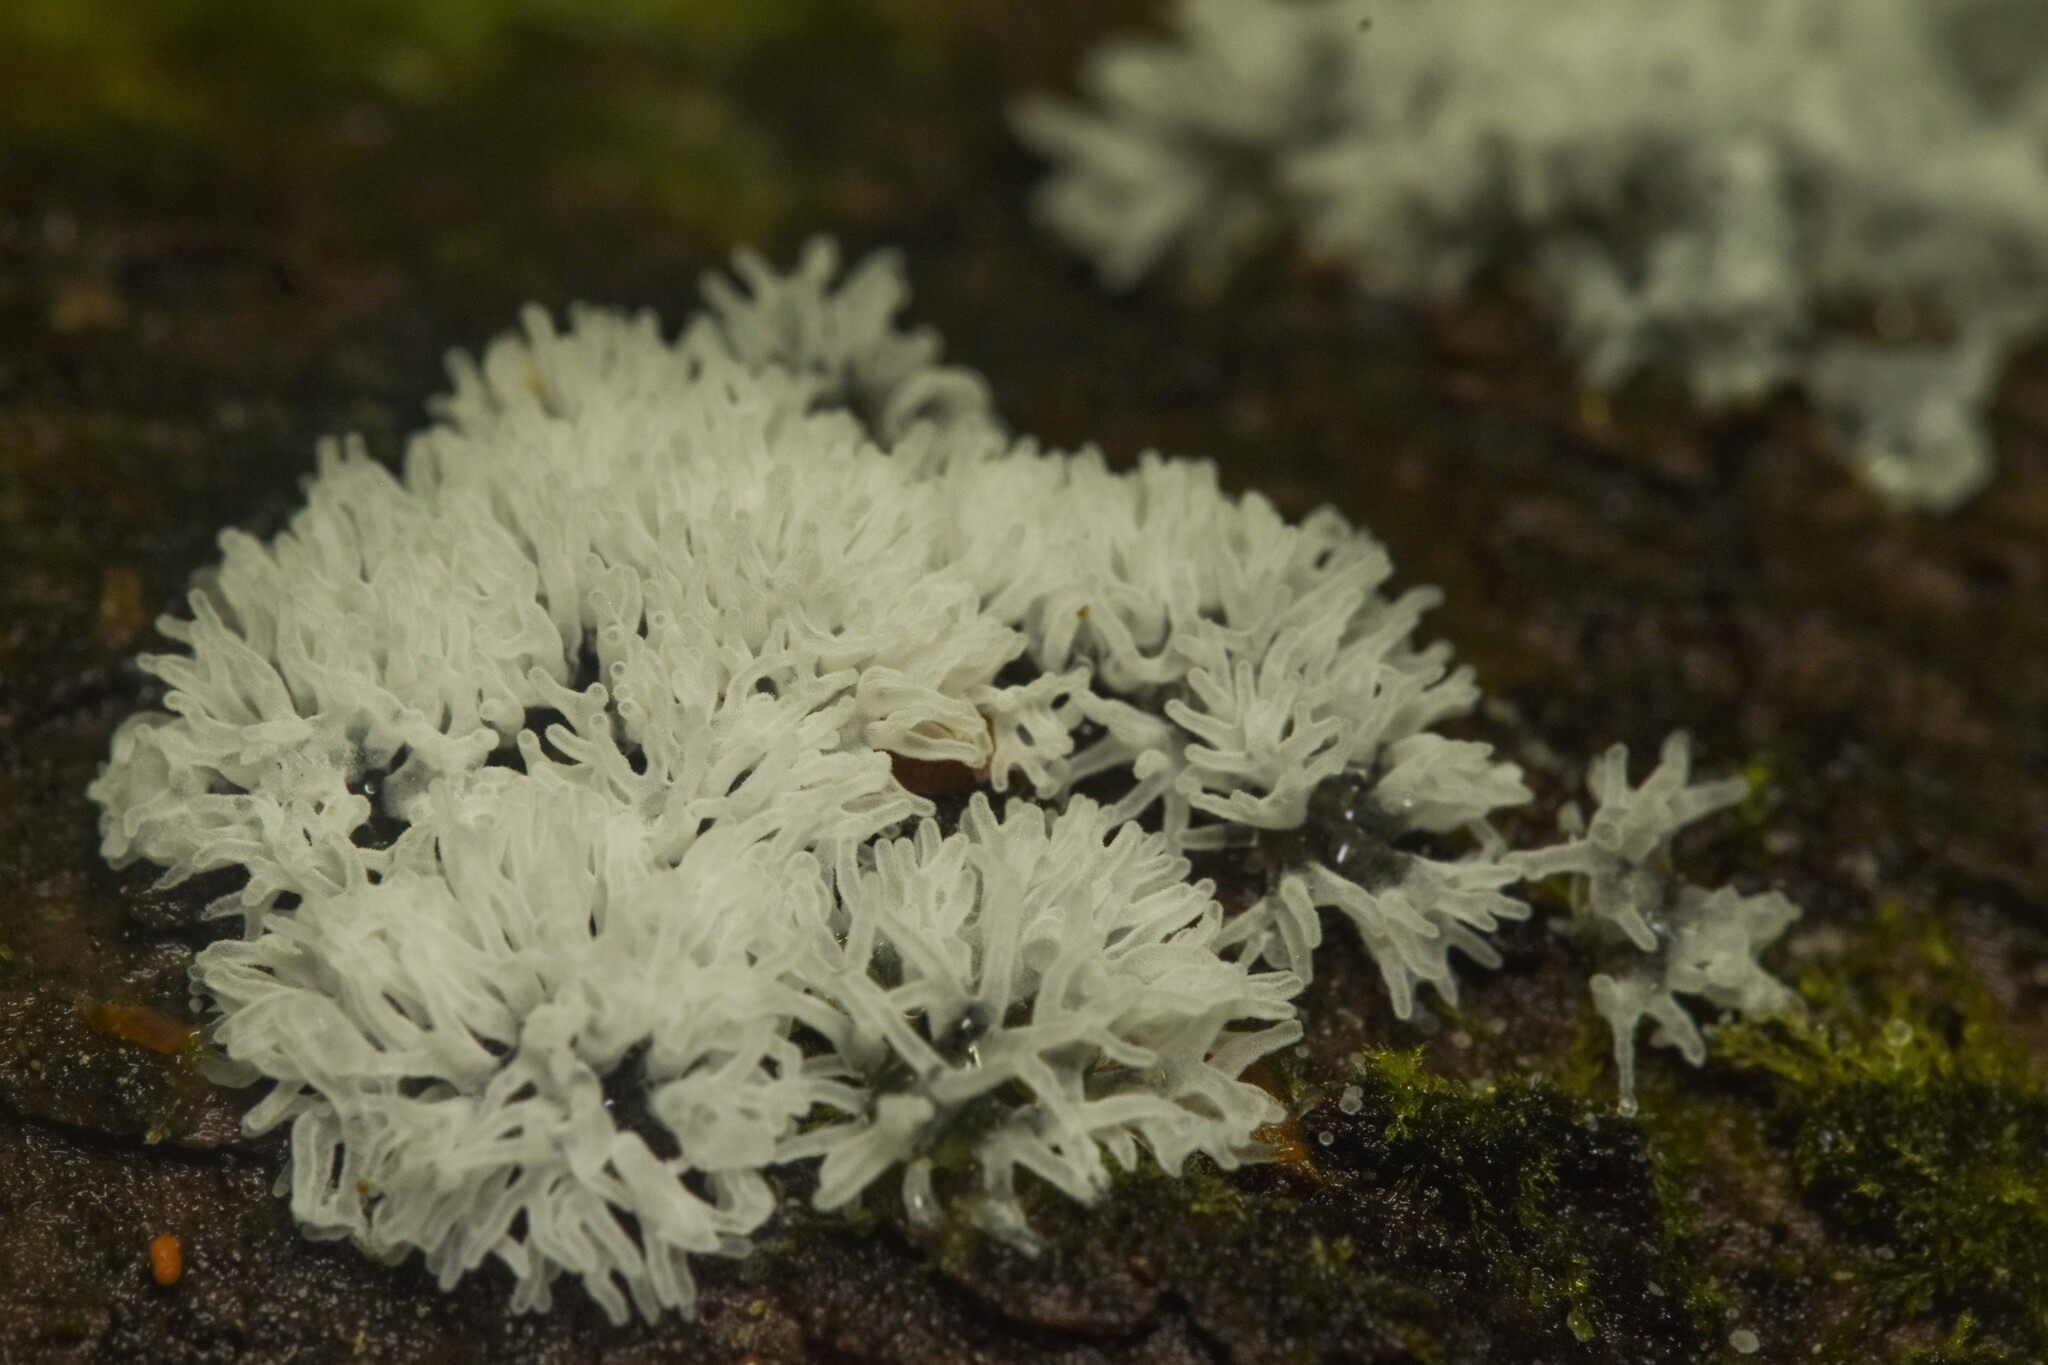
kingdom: Protozoa
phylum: Mycetozoa
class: Protosteliomycetes
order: Ceratiomyxales
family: Ceratiomyxaceae
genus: Ceratiomyxa
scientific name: Ceratiomyxa fruticulosa
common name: Honeycomb coral slime mold
